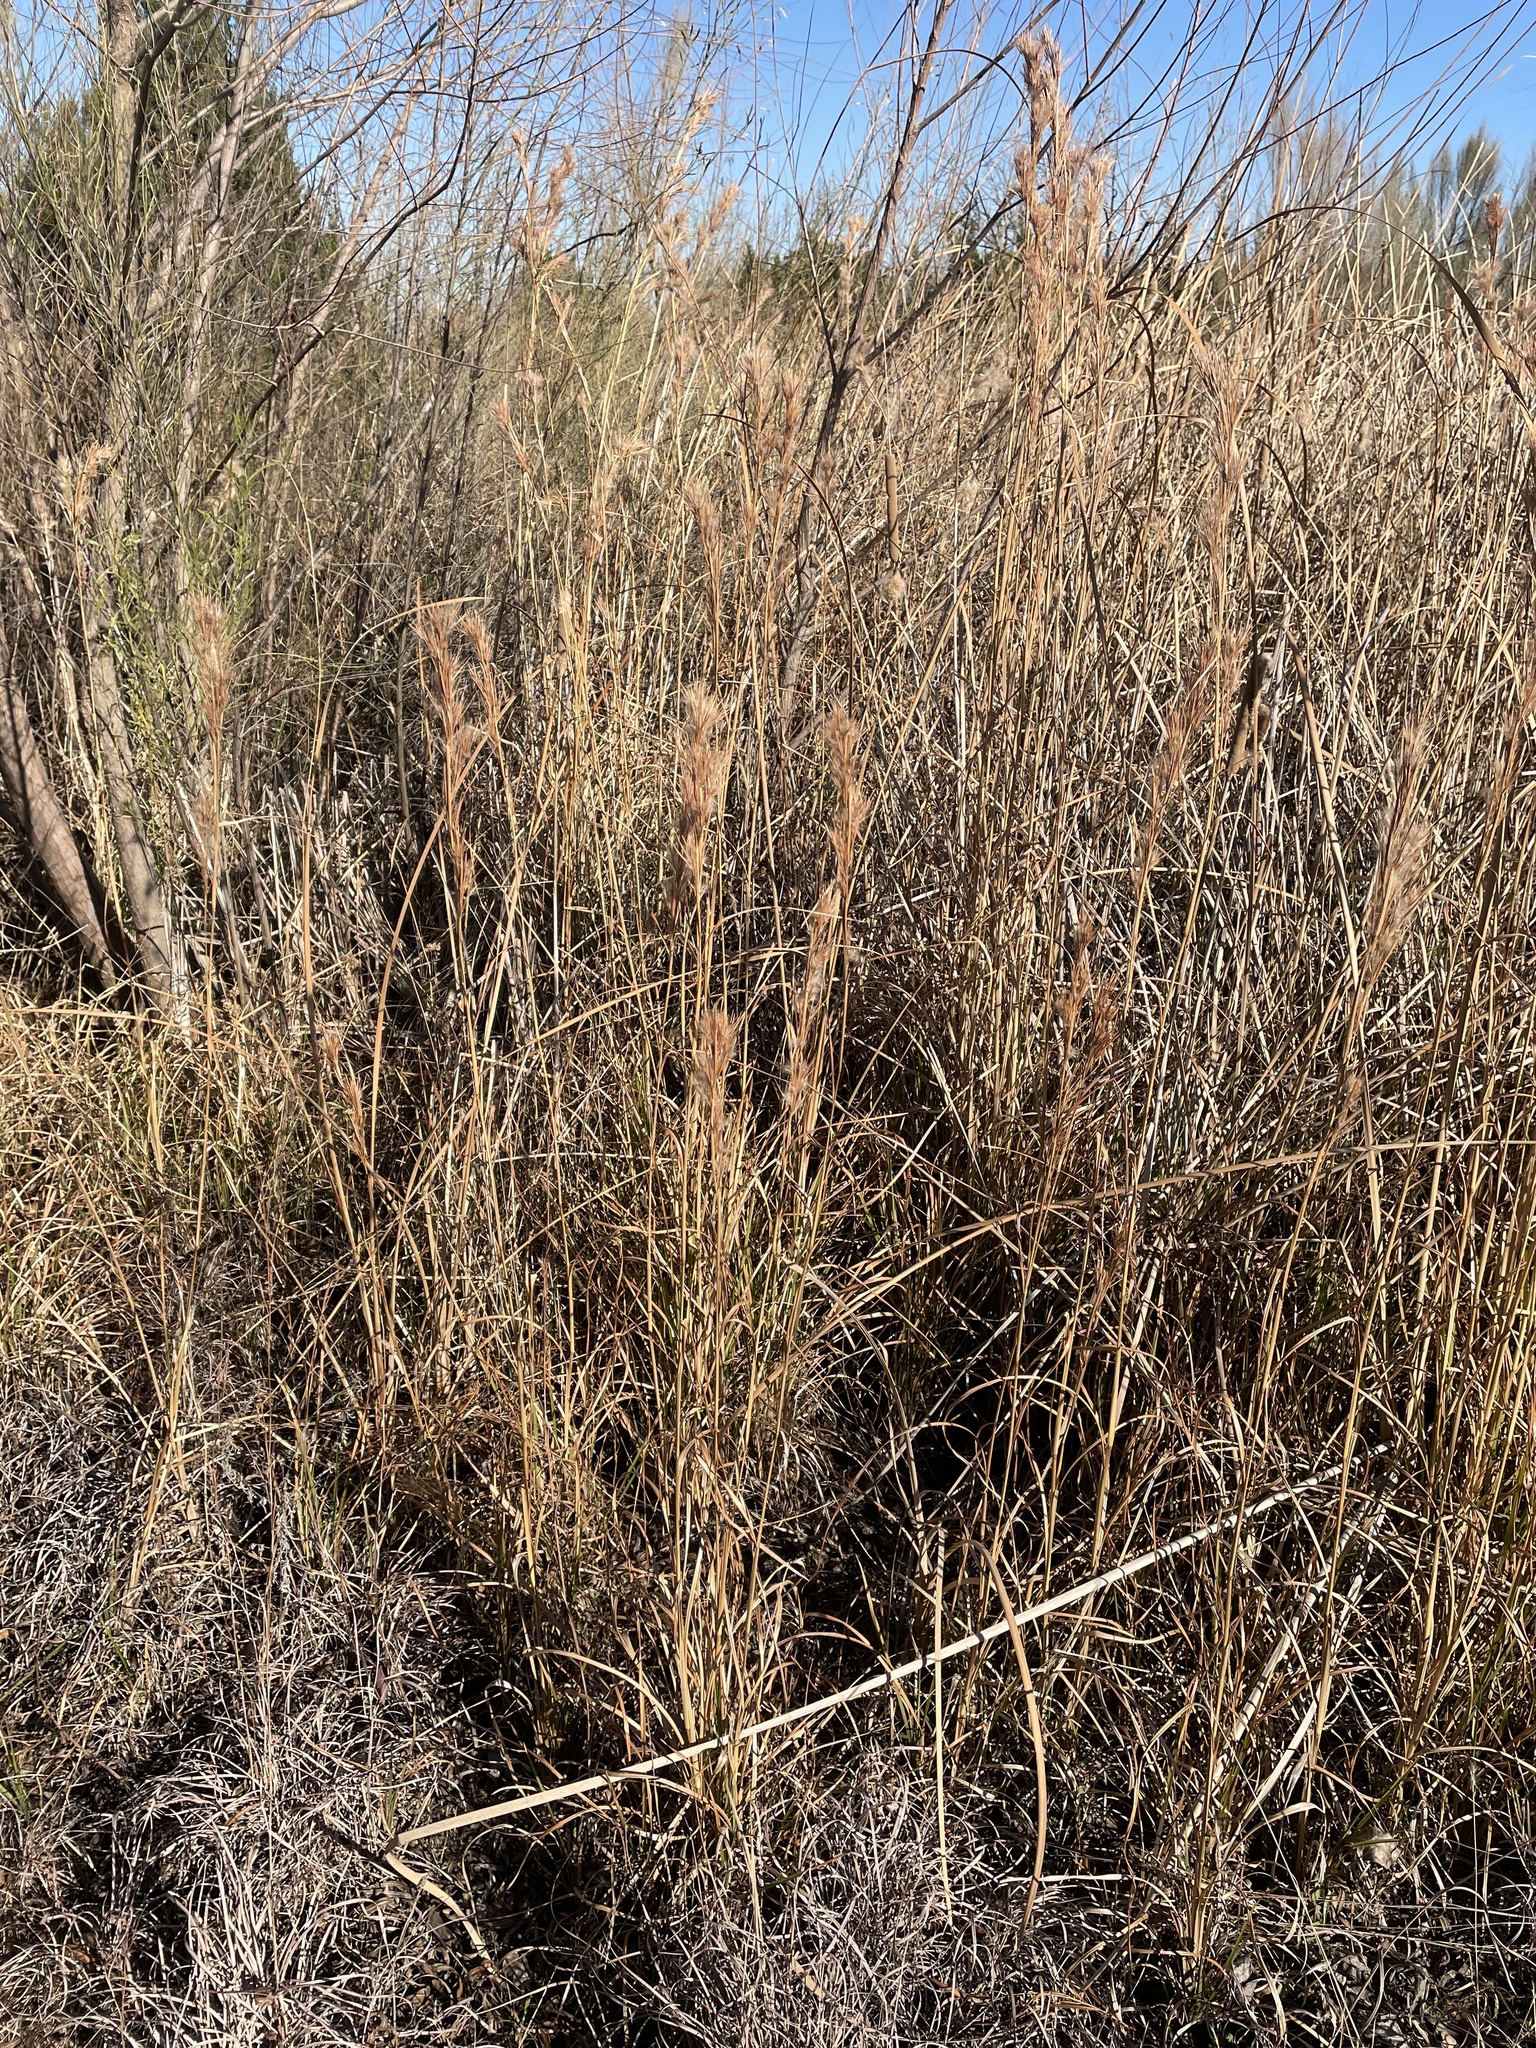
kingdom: Plantae
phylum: Tracheophyta
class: Liliopsida
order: Poales
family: Poaceae
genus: Andropogon
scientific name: Andropogon tenuispatheus
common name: Bushy bluestem
